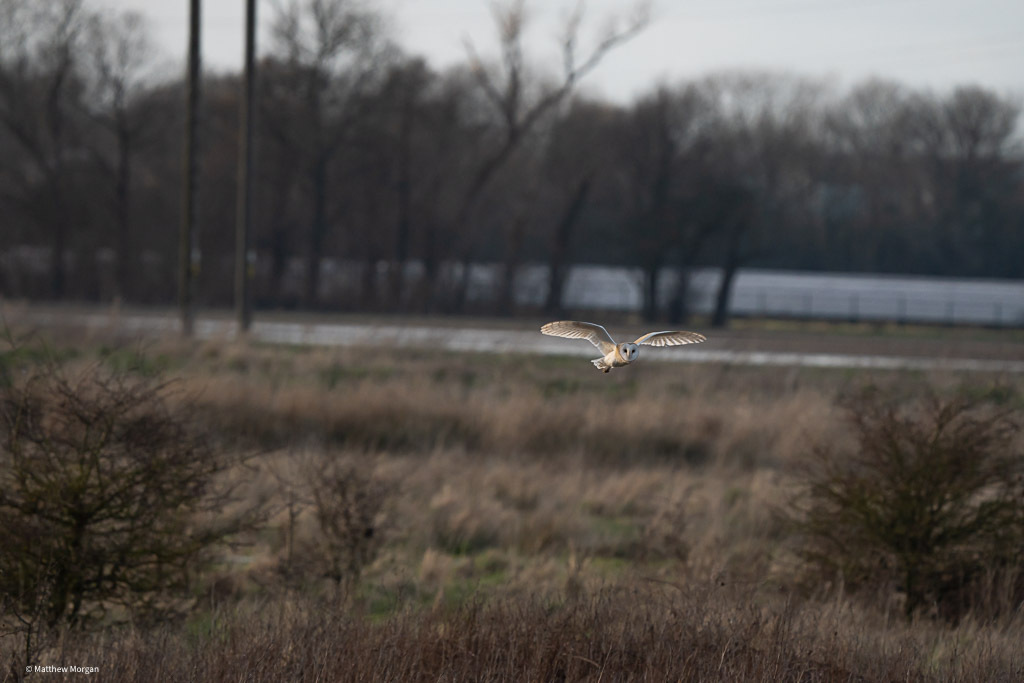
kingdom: Animalia
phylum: Chordata
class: Aves
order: Strigiformes
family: Tytonidae
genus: Tyto
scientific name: Tyto alba
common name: Barn owl
